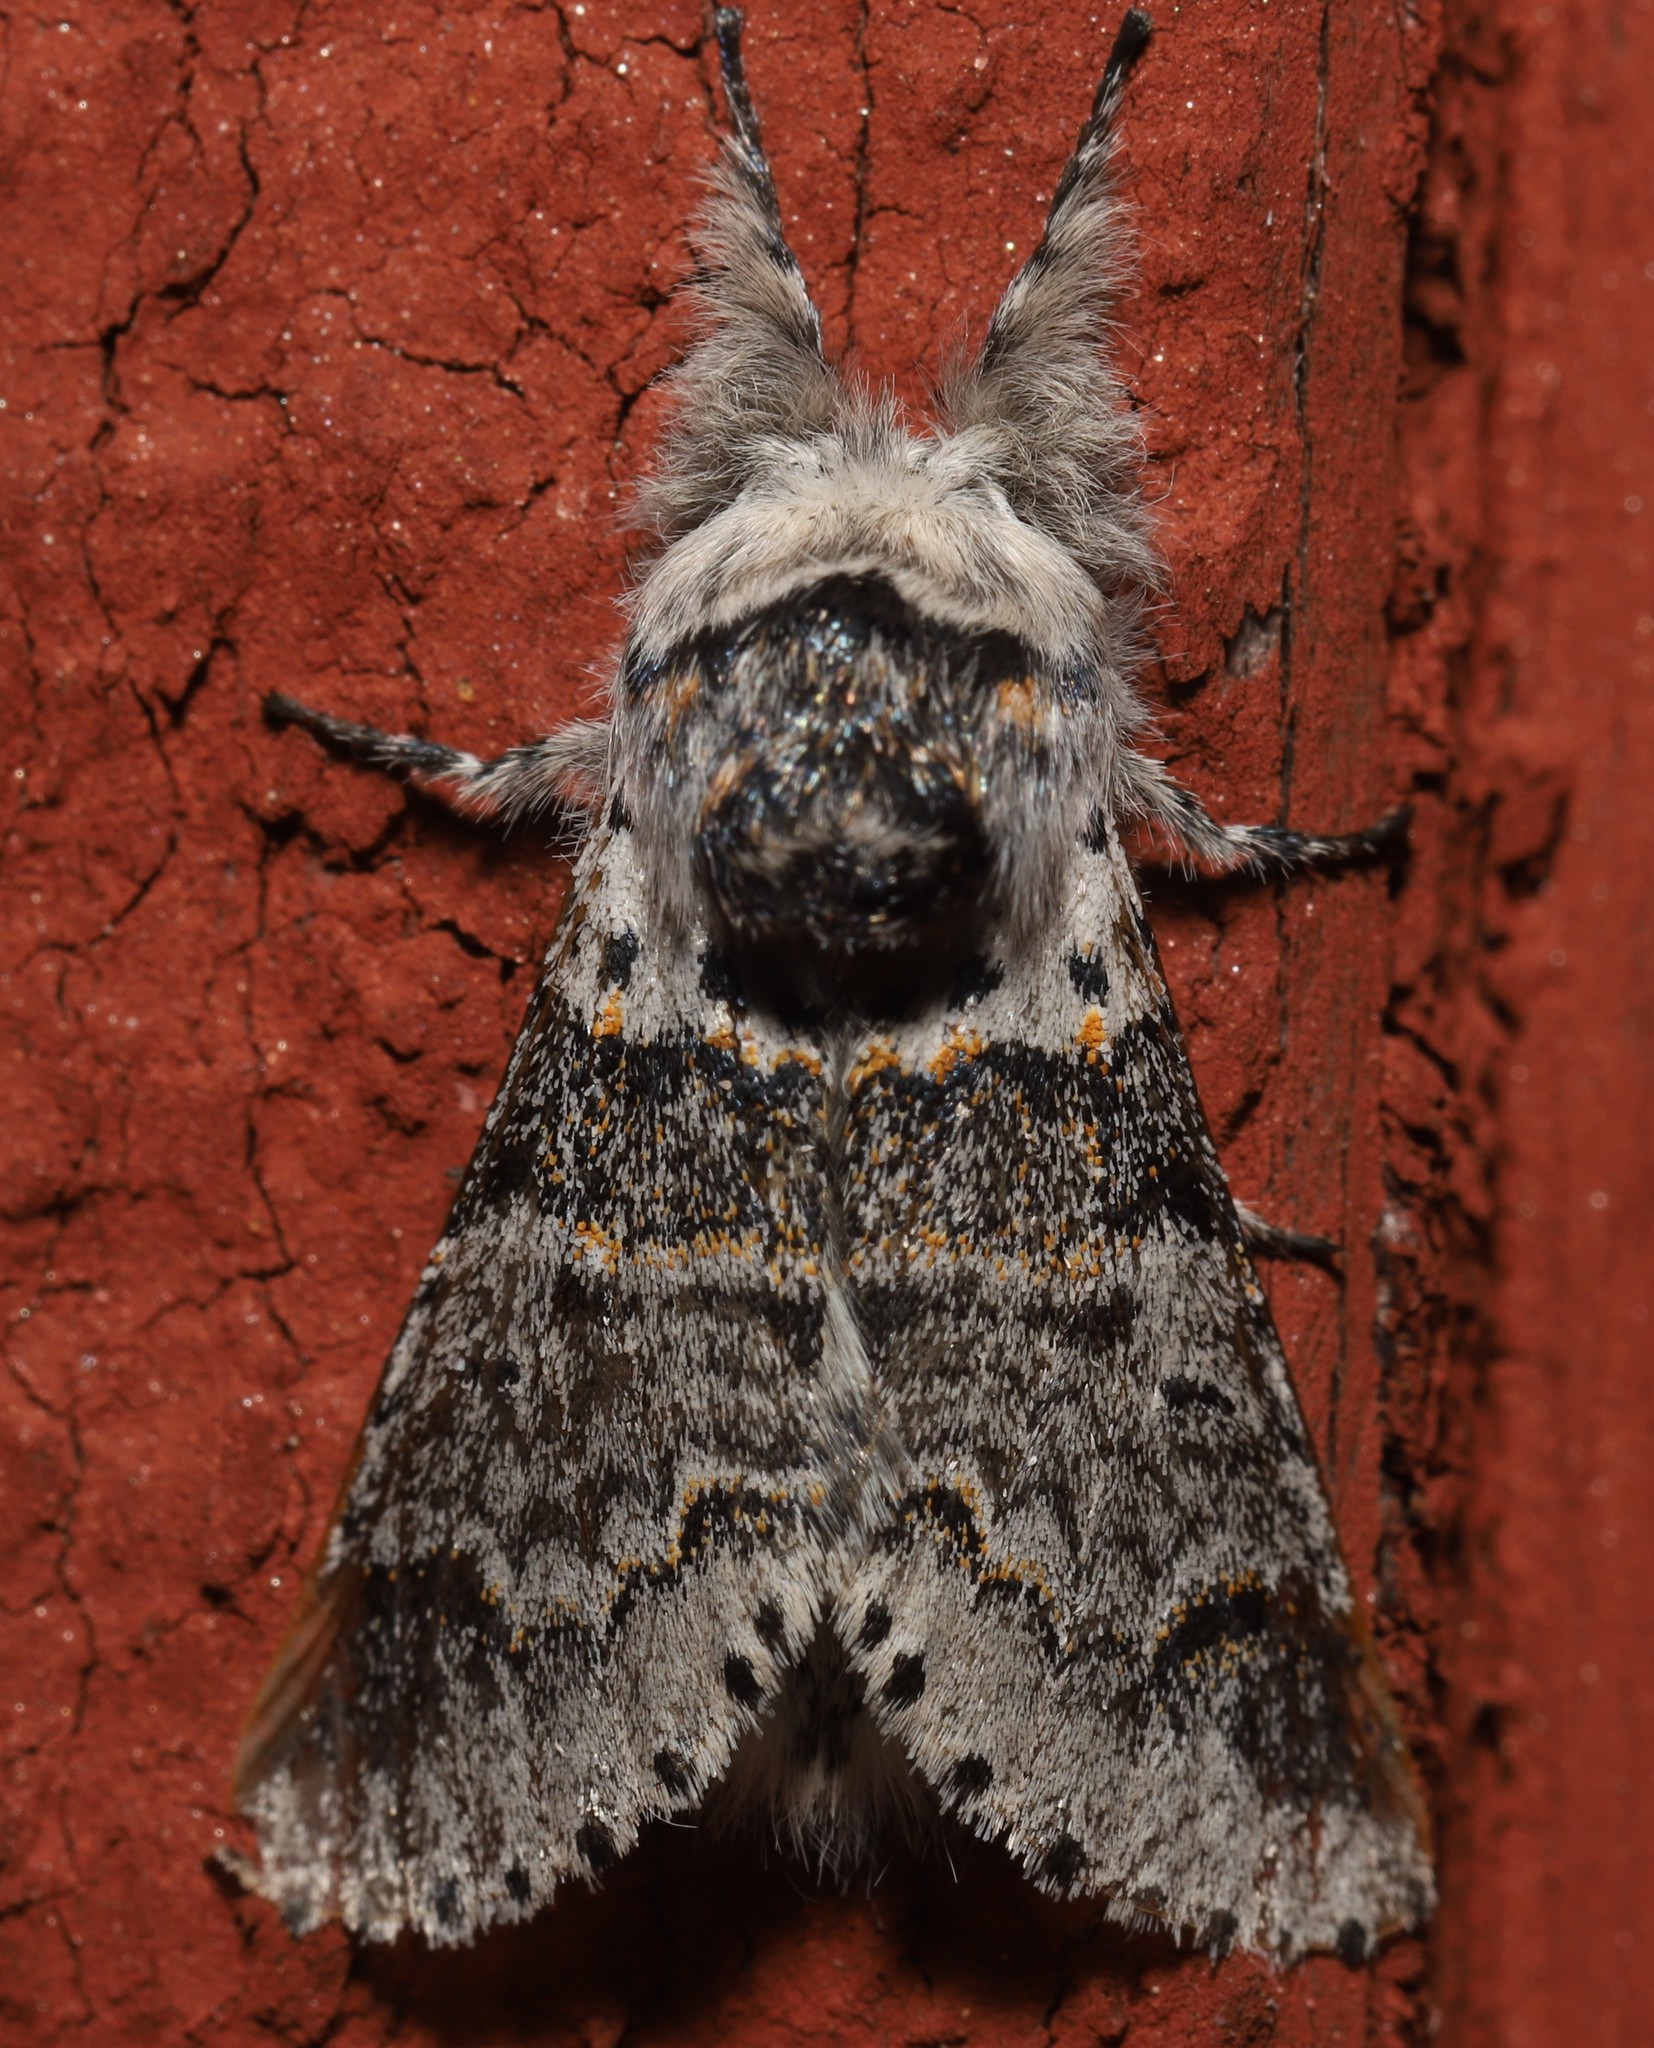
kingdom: Animalia
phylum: Arthropoda
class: Insecta
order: Lepidoptera
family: Notodontidae
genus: Furcula
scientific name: Furcula occidentalis
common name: Western furcula moth
